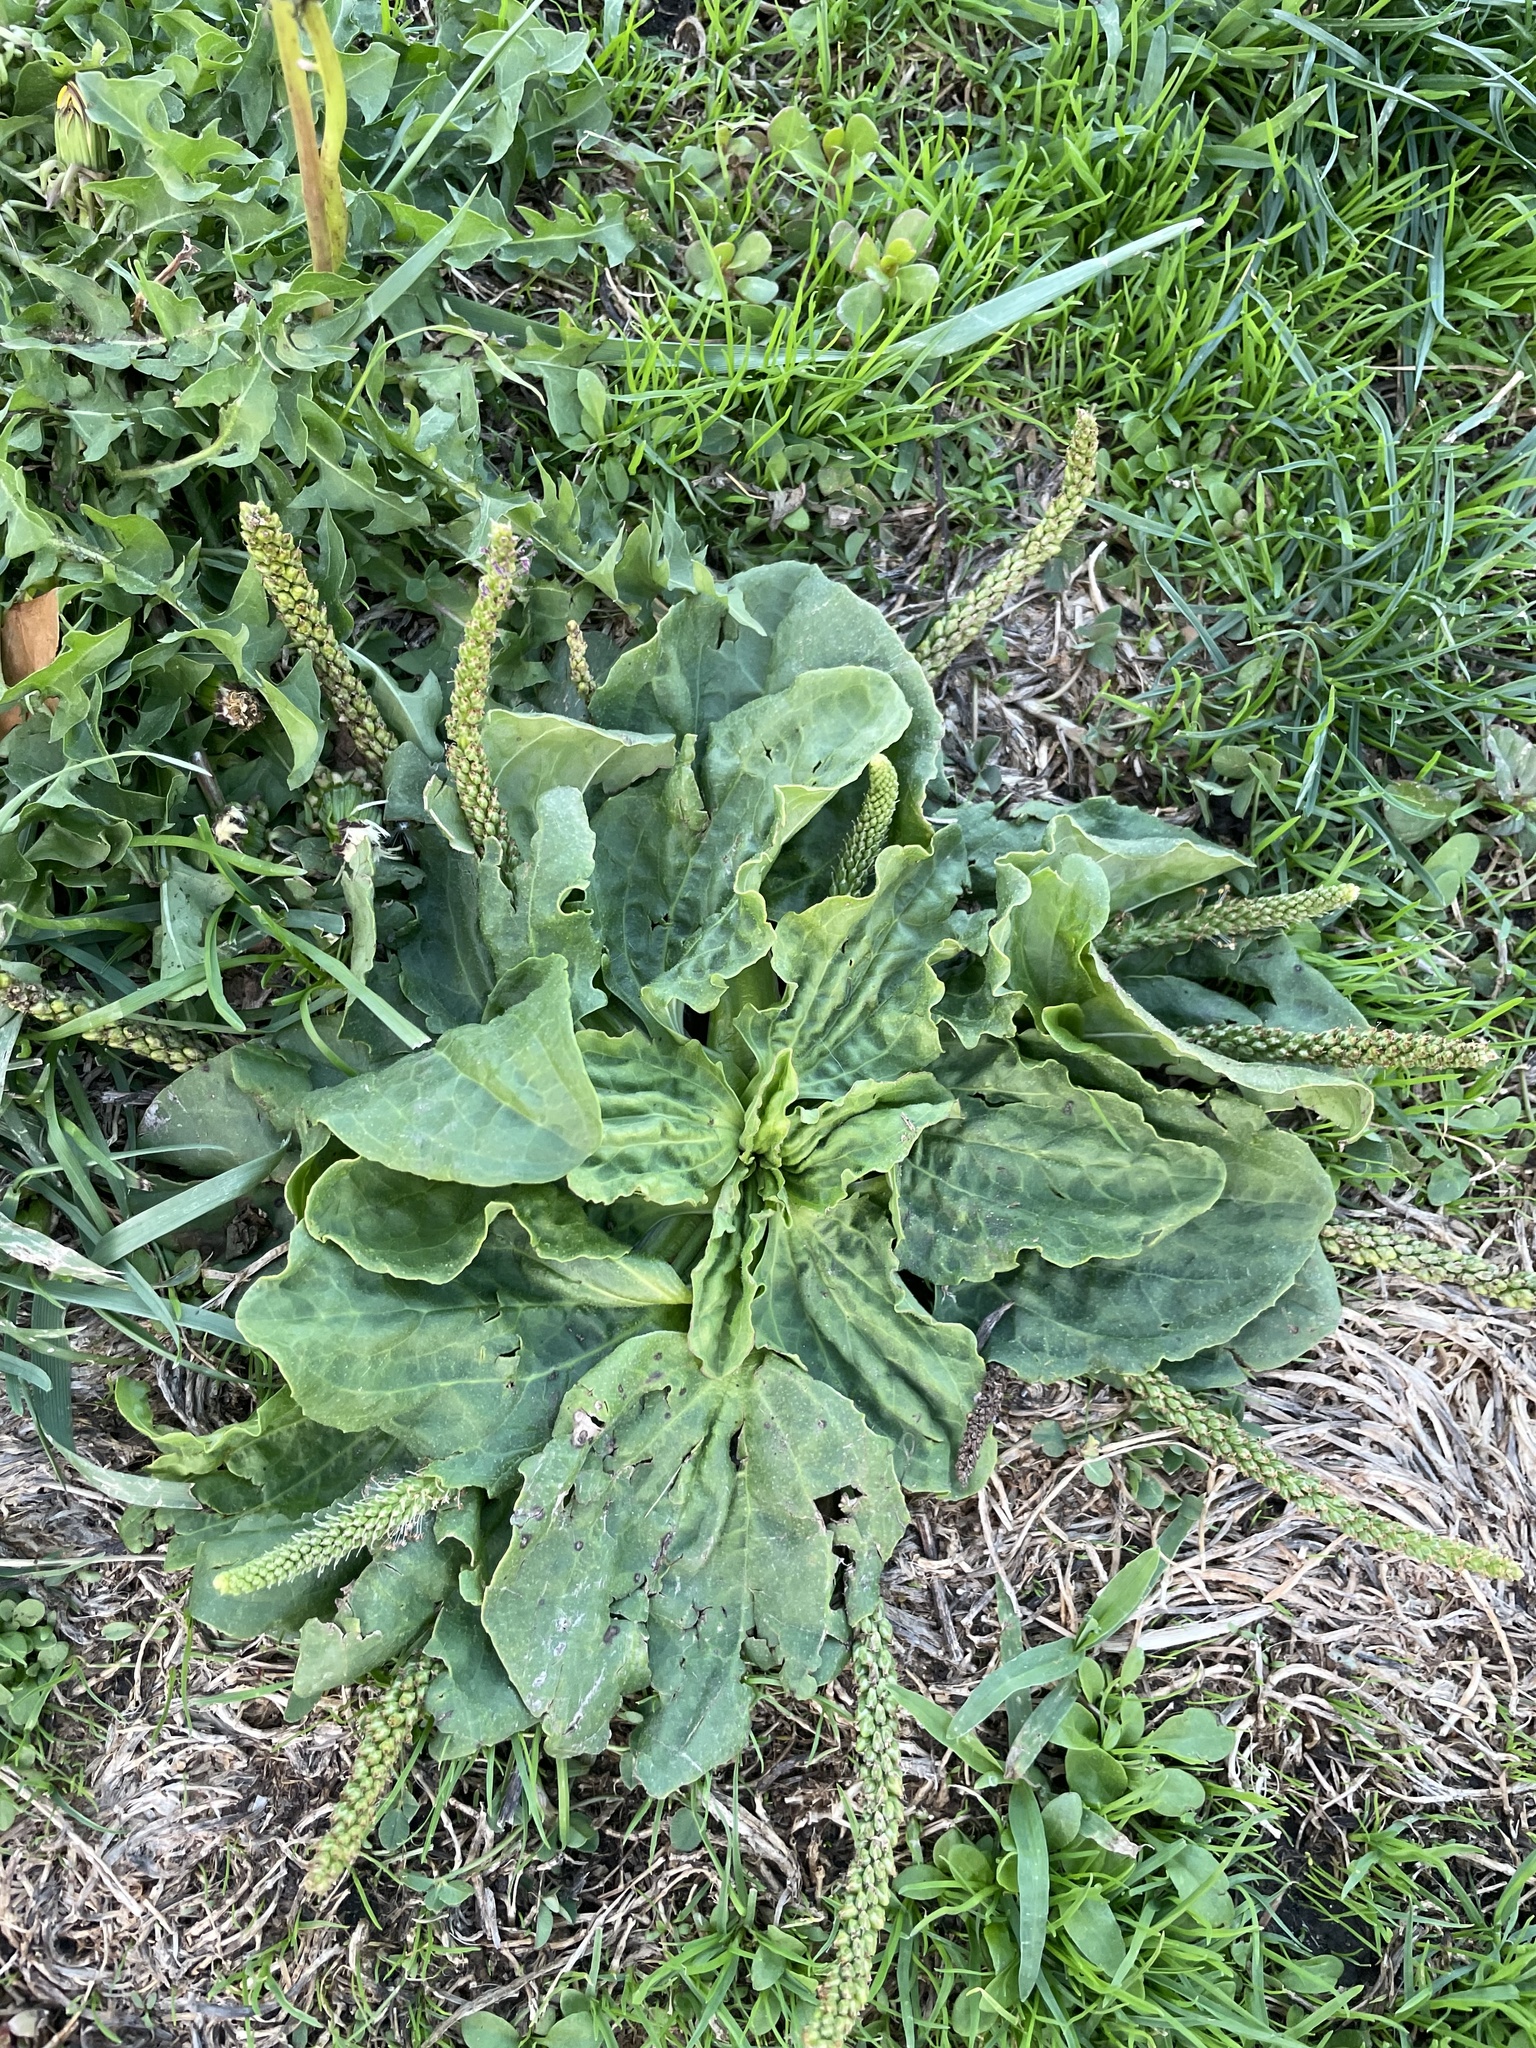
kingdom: Plantae
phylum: Tracheophyta
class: Magnoliopsida
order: Lamiales
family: Plantaginaceae
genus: Plantago
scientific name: Plantago major
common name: Common plantain
